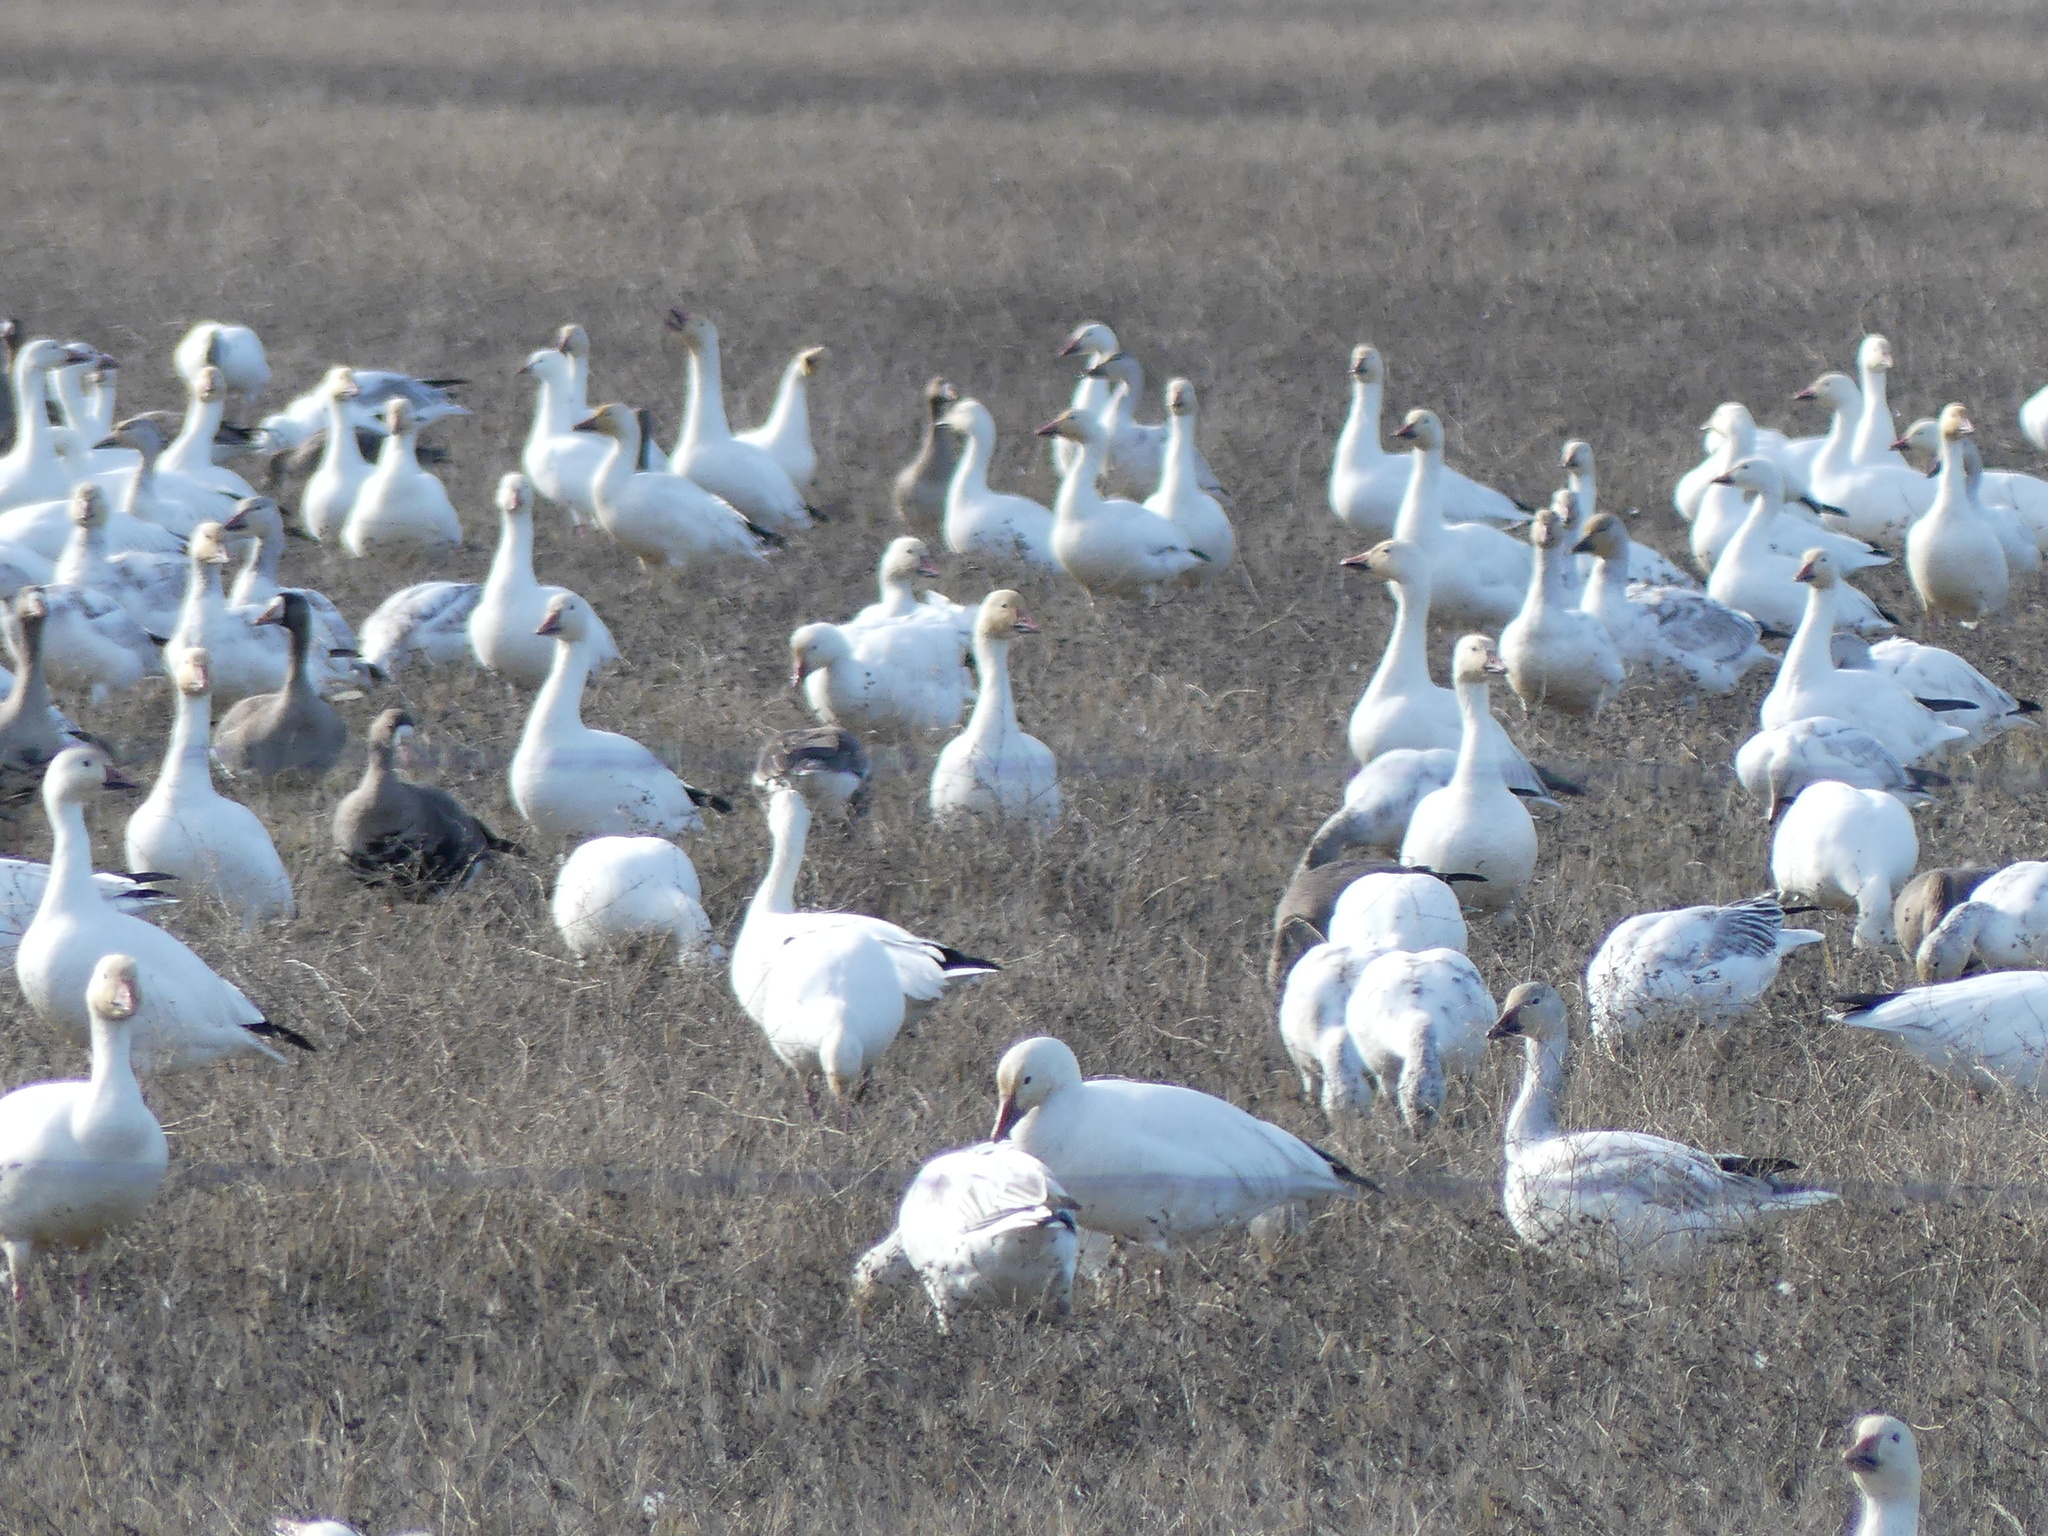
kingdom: Animalia
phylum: Chordata
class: Aves
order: Anseriformes
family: Anatidae
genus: Anser
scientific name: Anser caerulescens
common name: Snow goose
